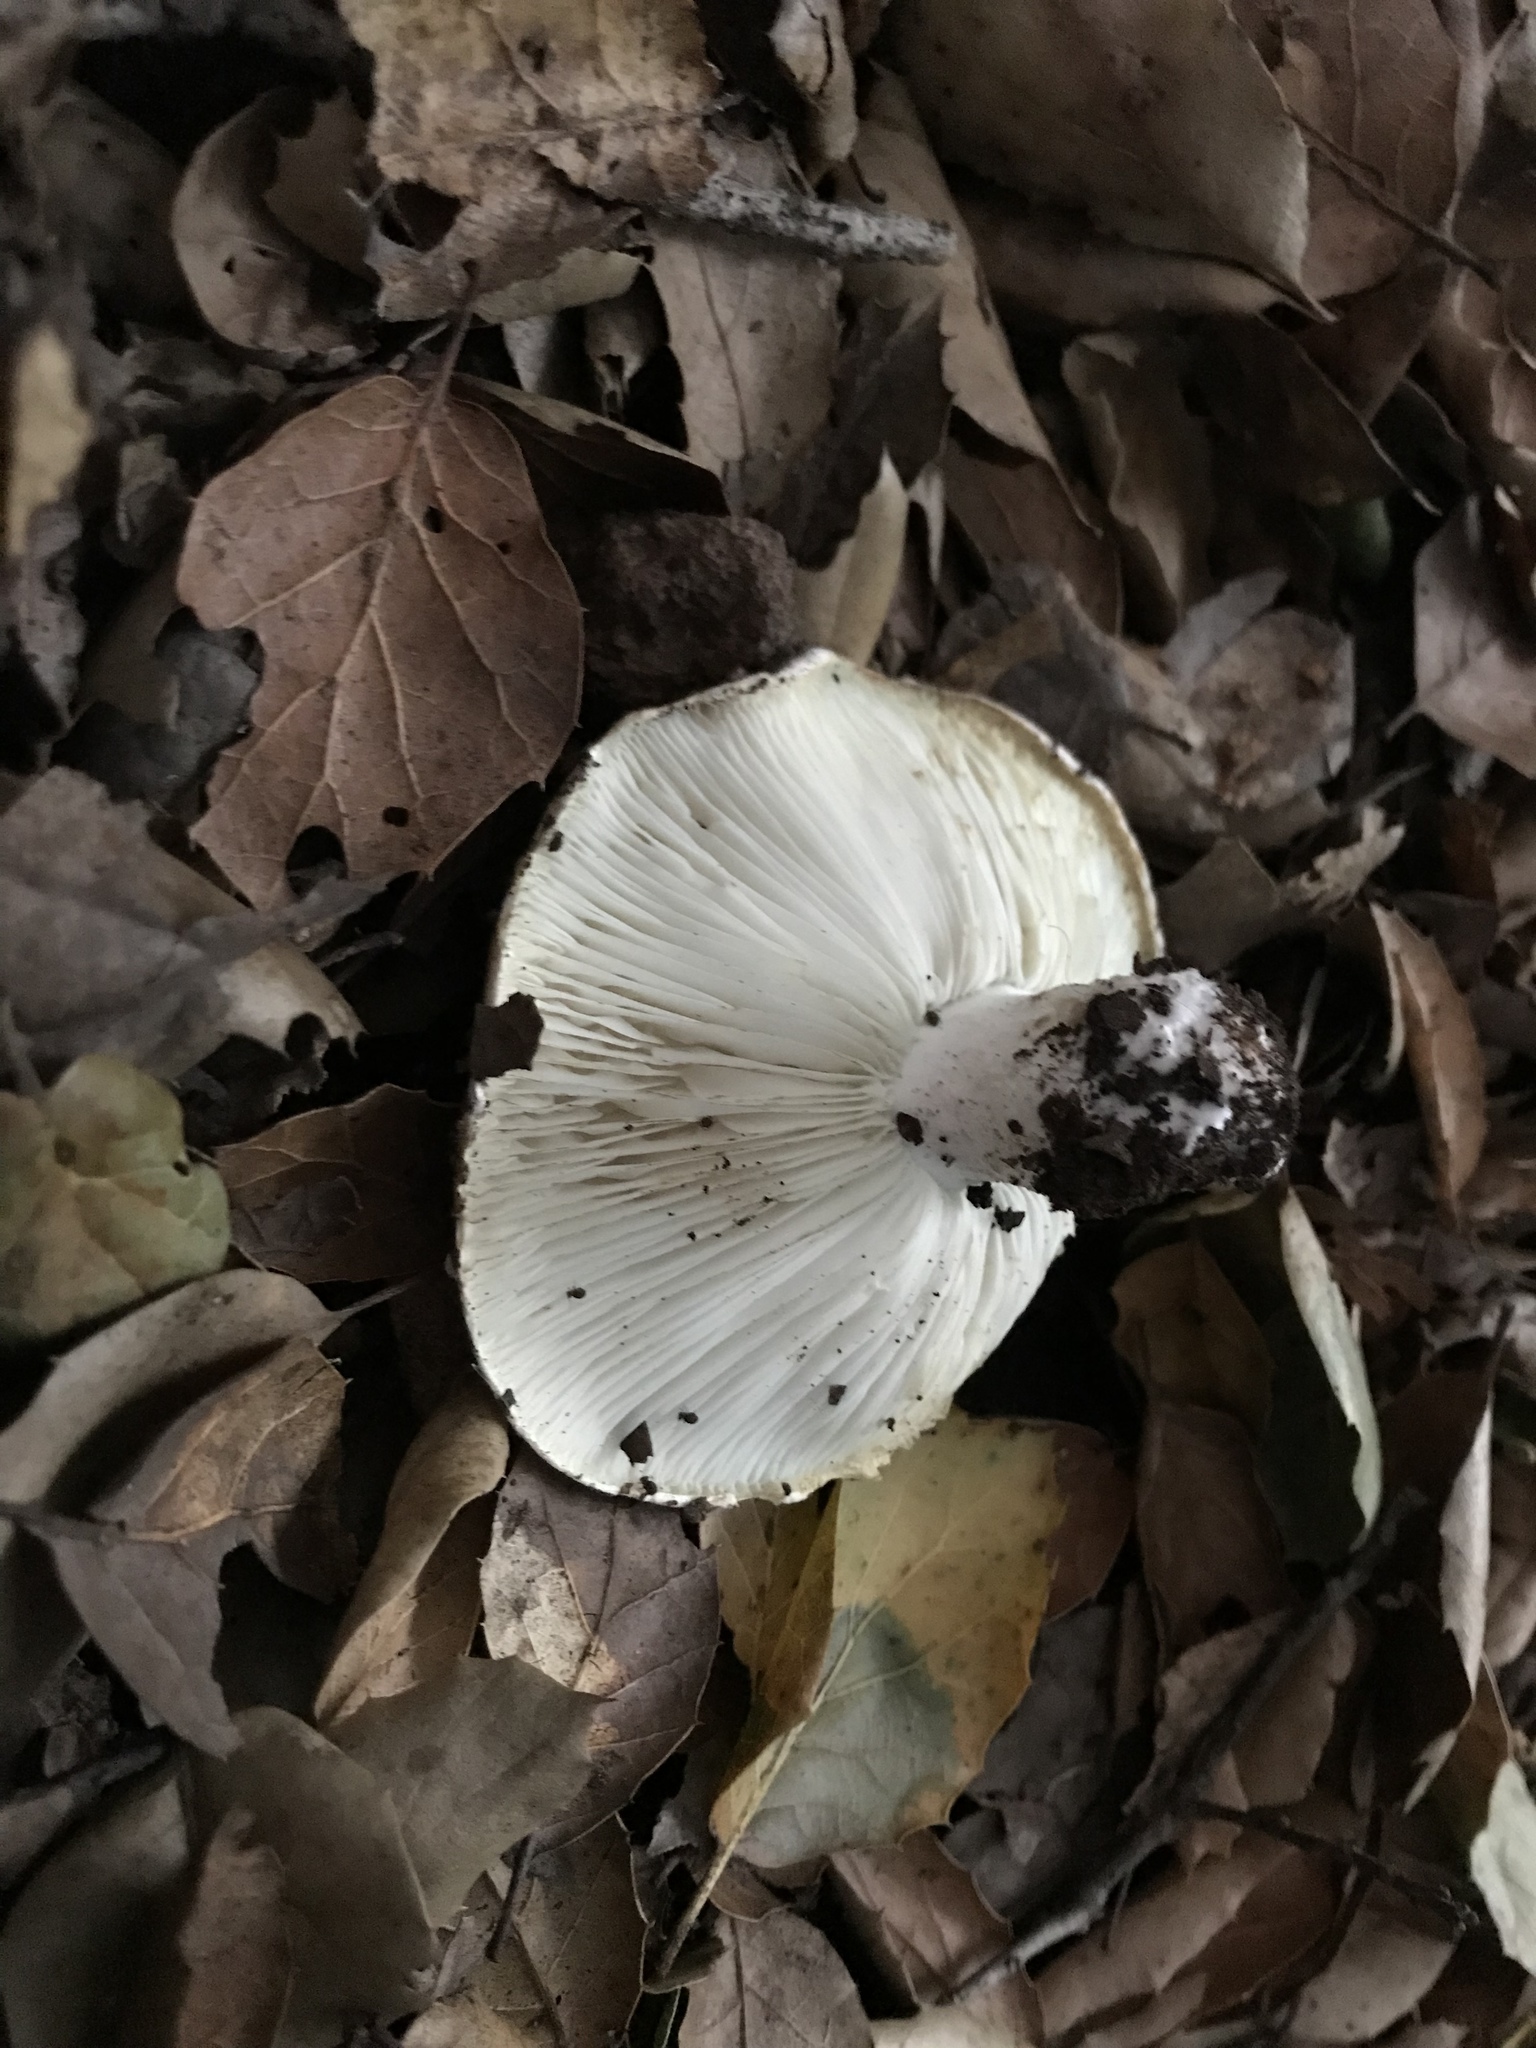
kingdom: Fungi
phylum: Basidiomycota
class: Agaricomycetes
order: Russulales
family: Russulaceae
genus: Russula
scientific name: Russula brevipes
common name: Short-stemmed russula
